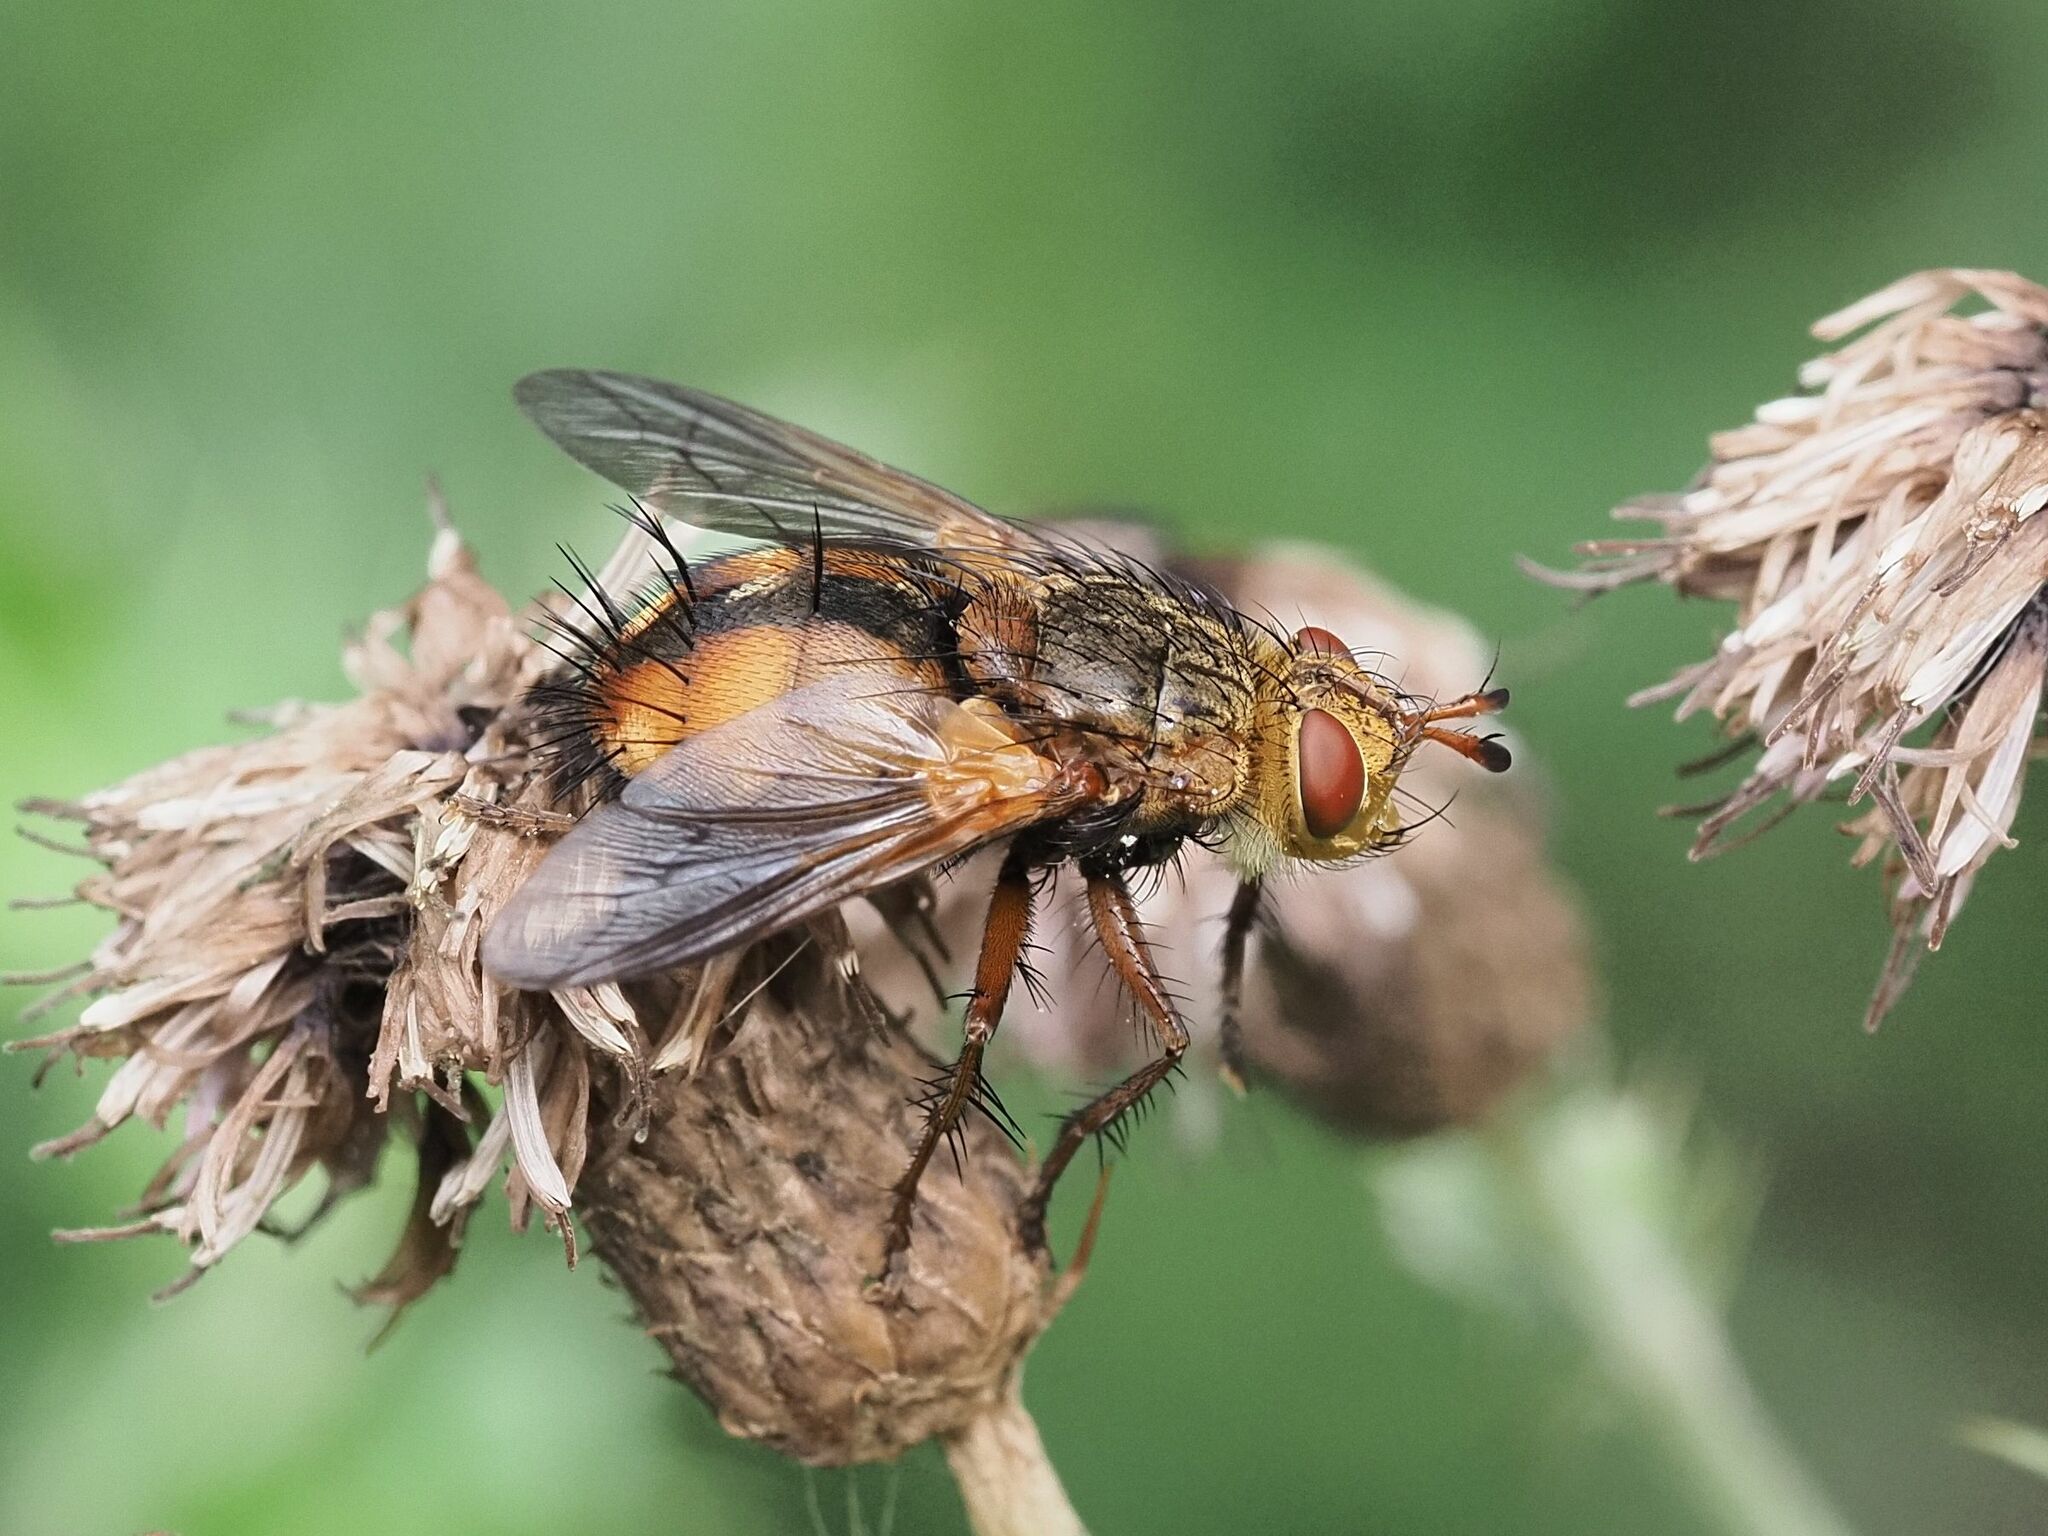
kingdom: Animalia
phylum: Arthropoda
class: Insecta
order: Diptera
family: Tachinidae
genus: Tachina
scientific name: Tachina fera
